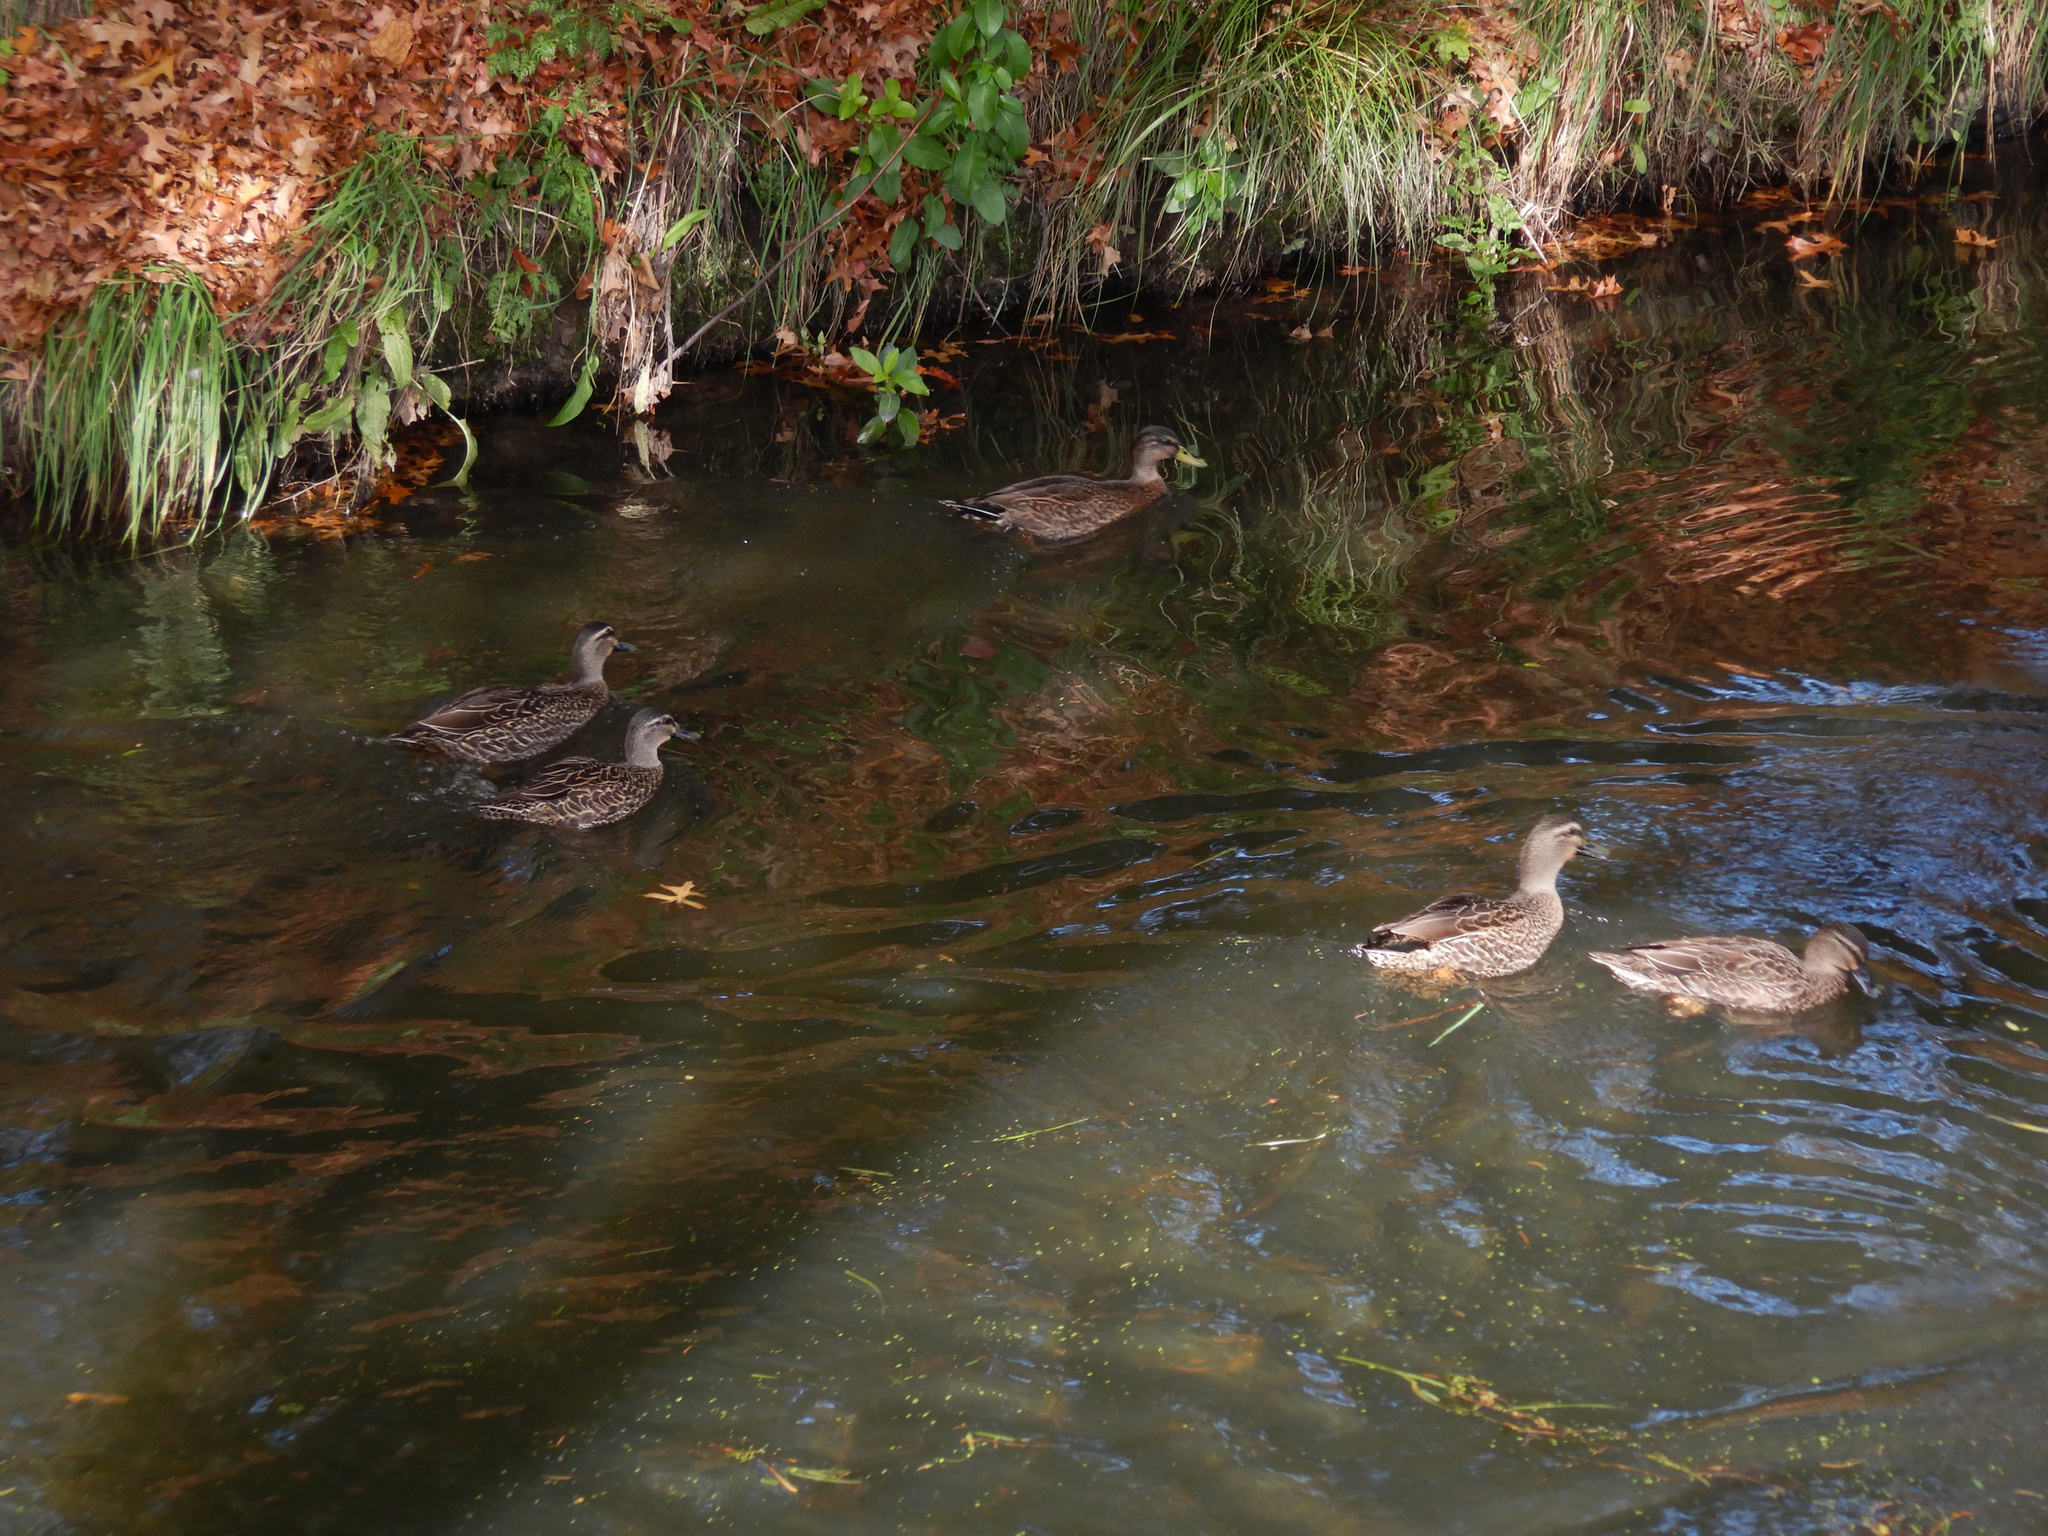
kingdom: Animalia
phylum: Chordata
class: Aves
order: Anseriformes
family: Anatidae
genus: Anas
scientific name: Anas
